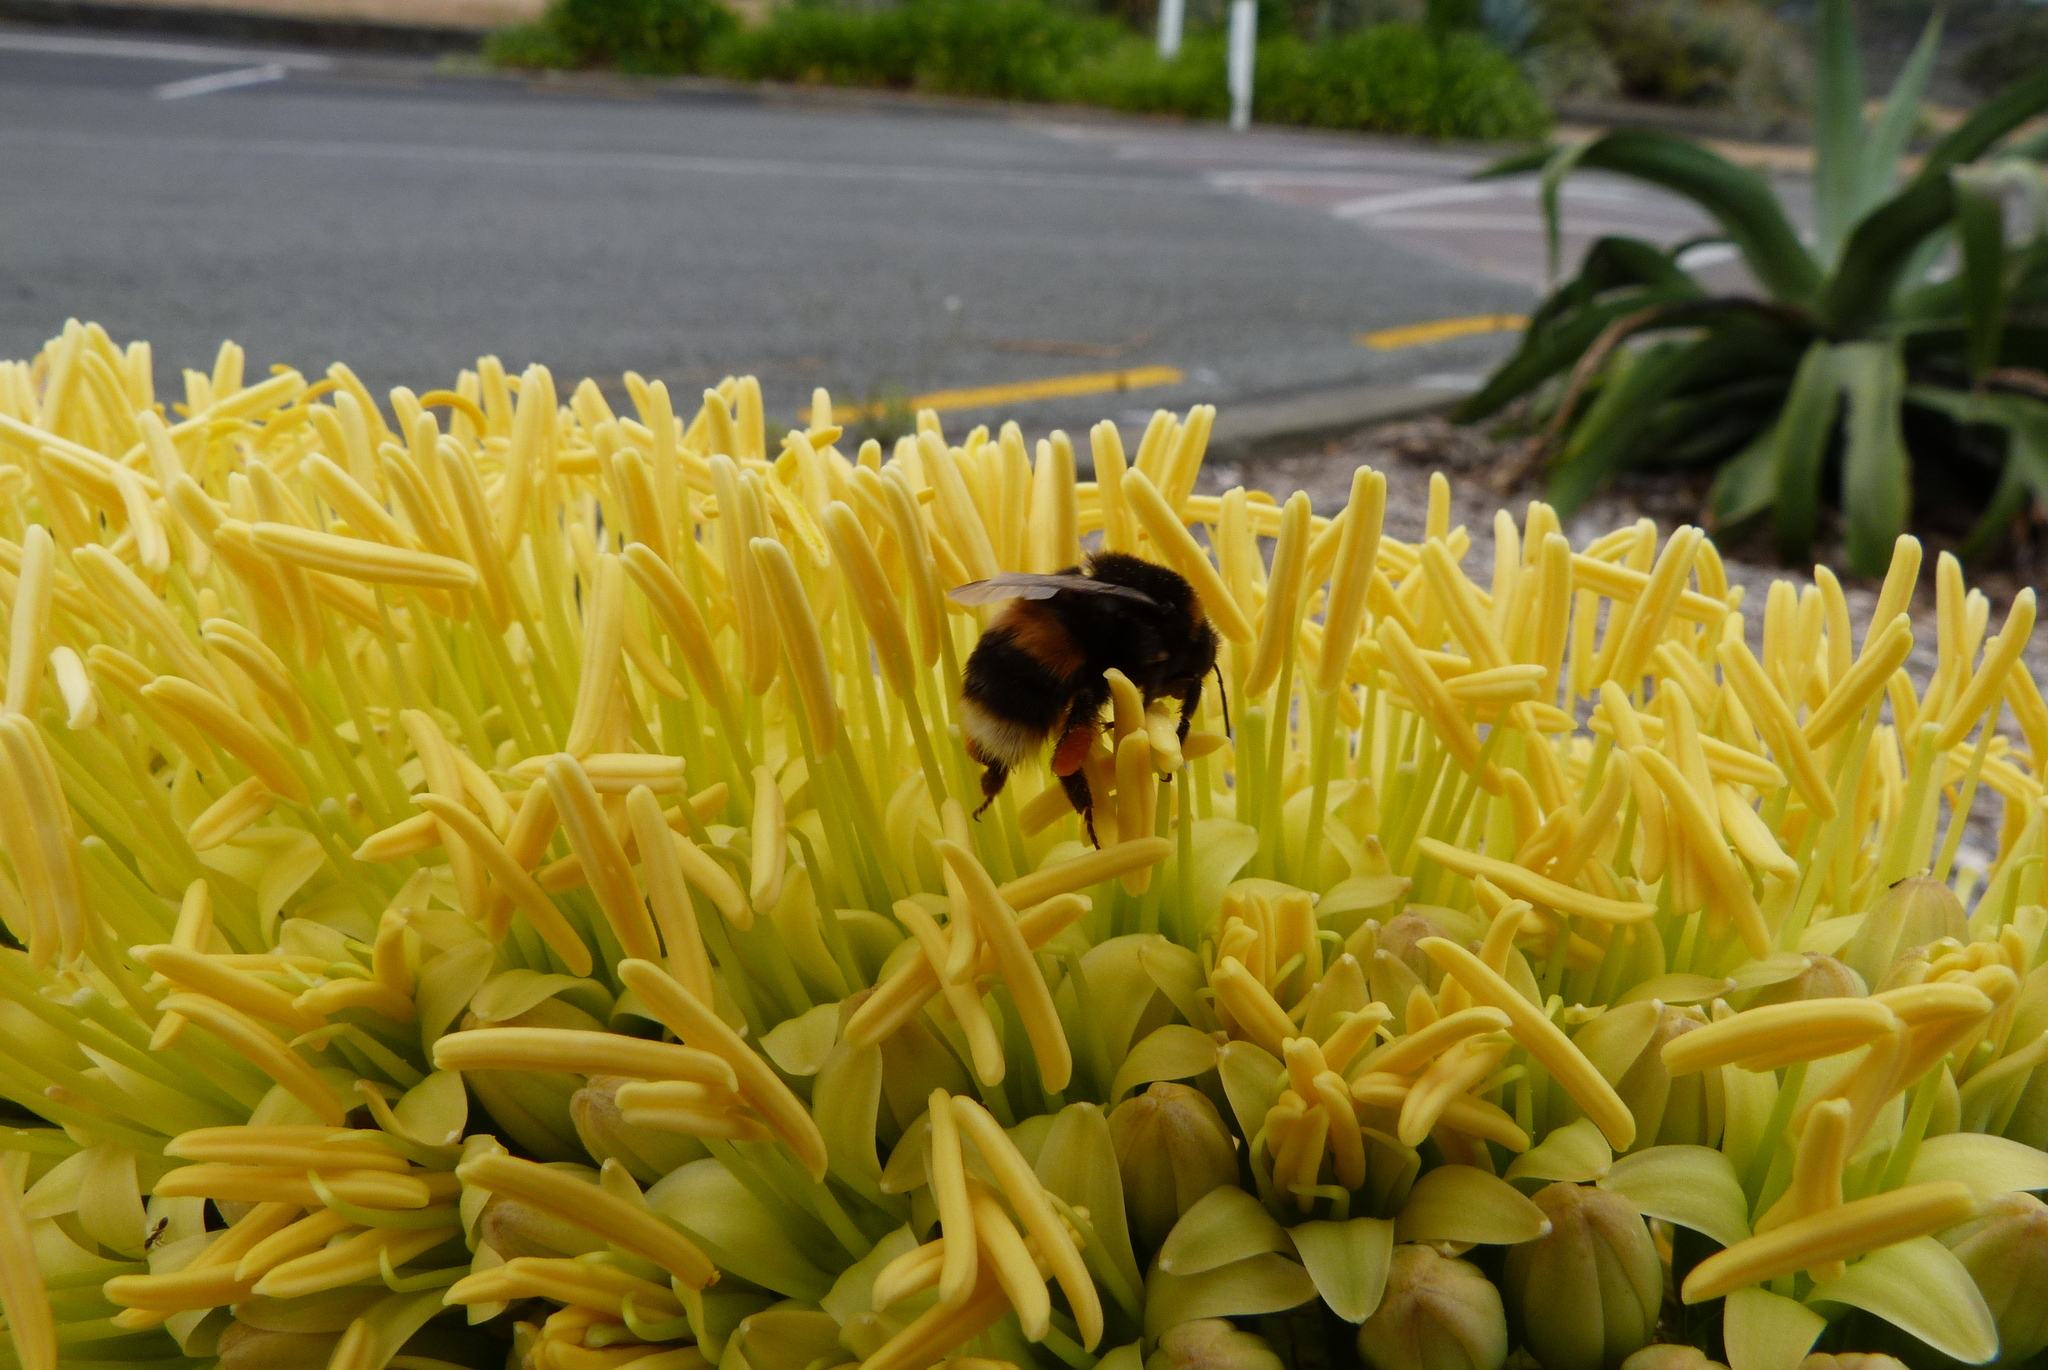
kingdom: Animalia
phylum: Arthropoda
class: Insecta
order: Hymenoptera
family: Apidae
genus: Bombus
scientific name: Bombus terrestris
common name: Buff-tailed bumblebee
